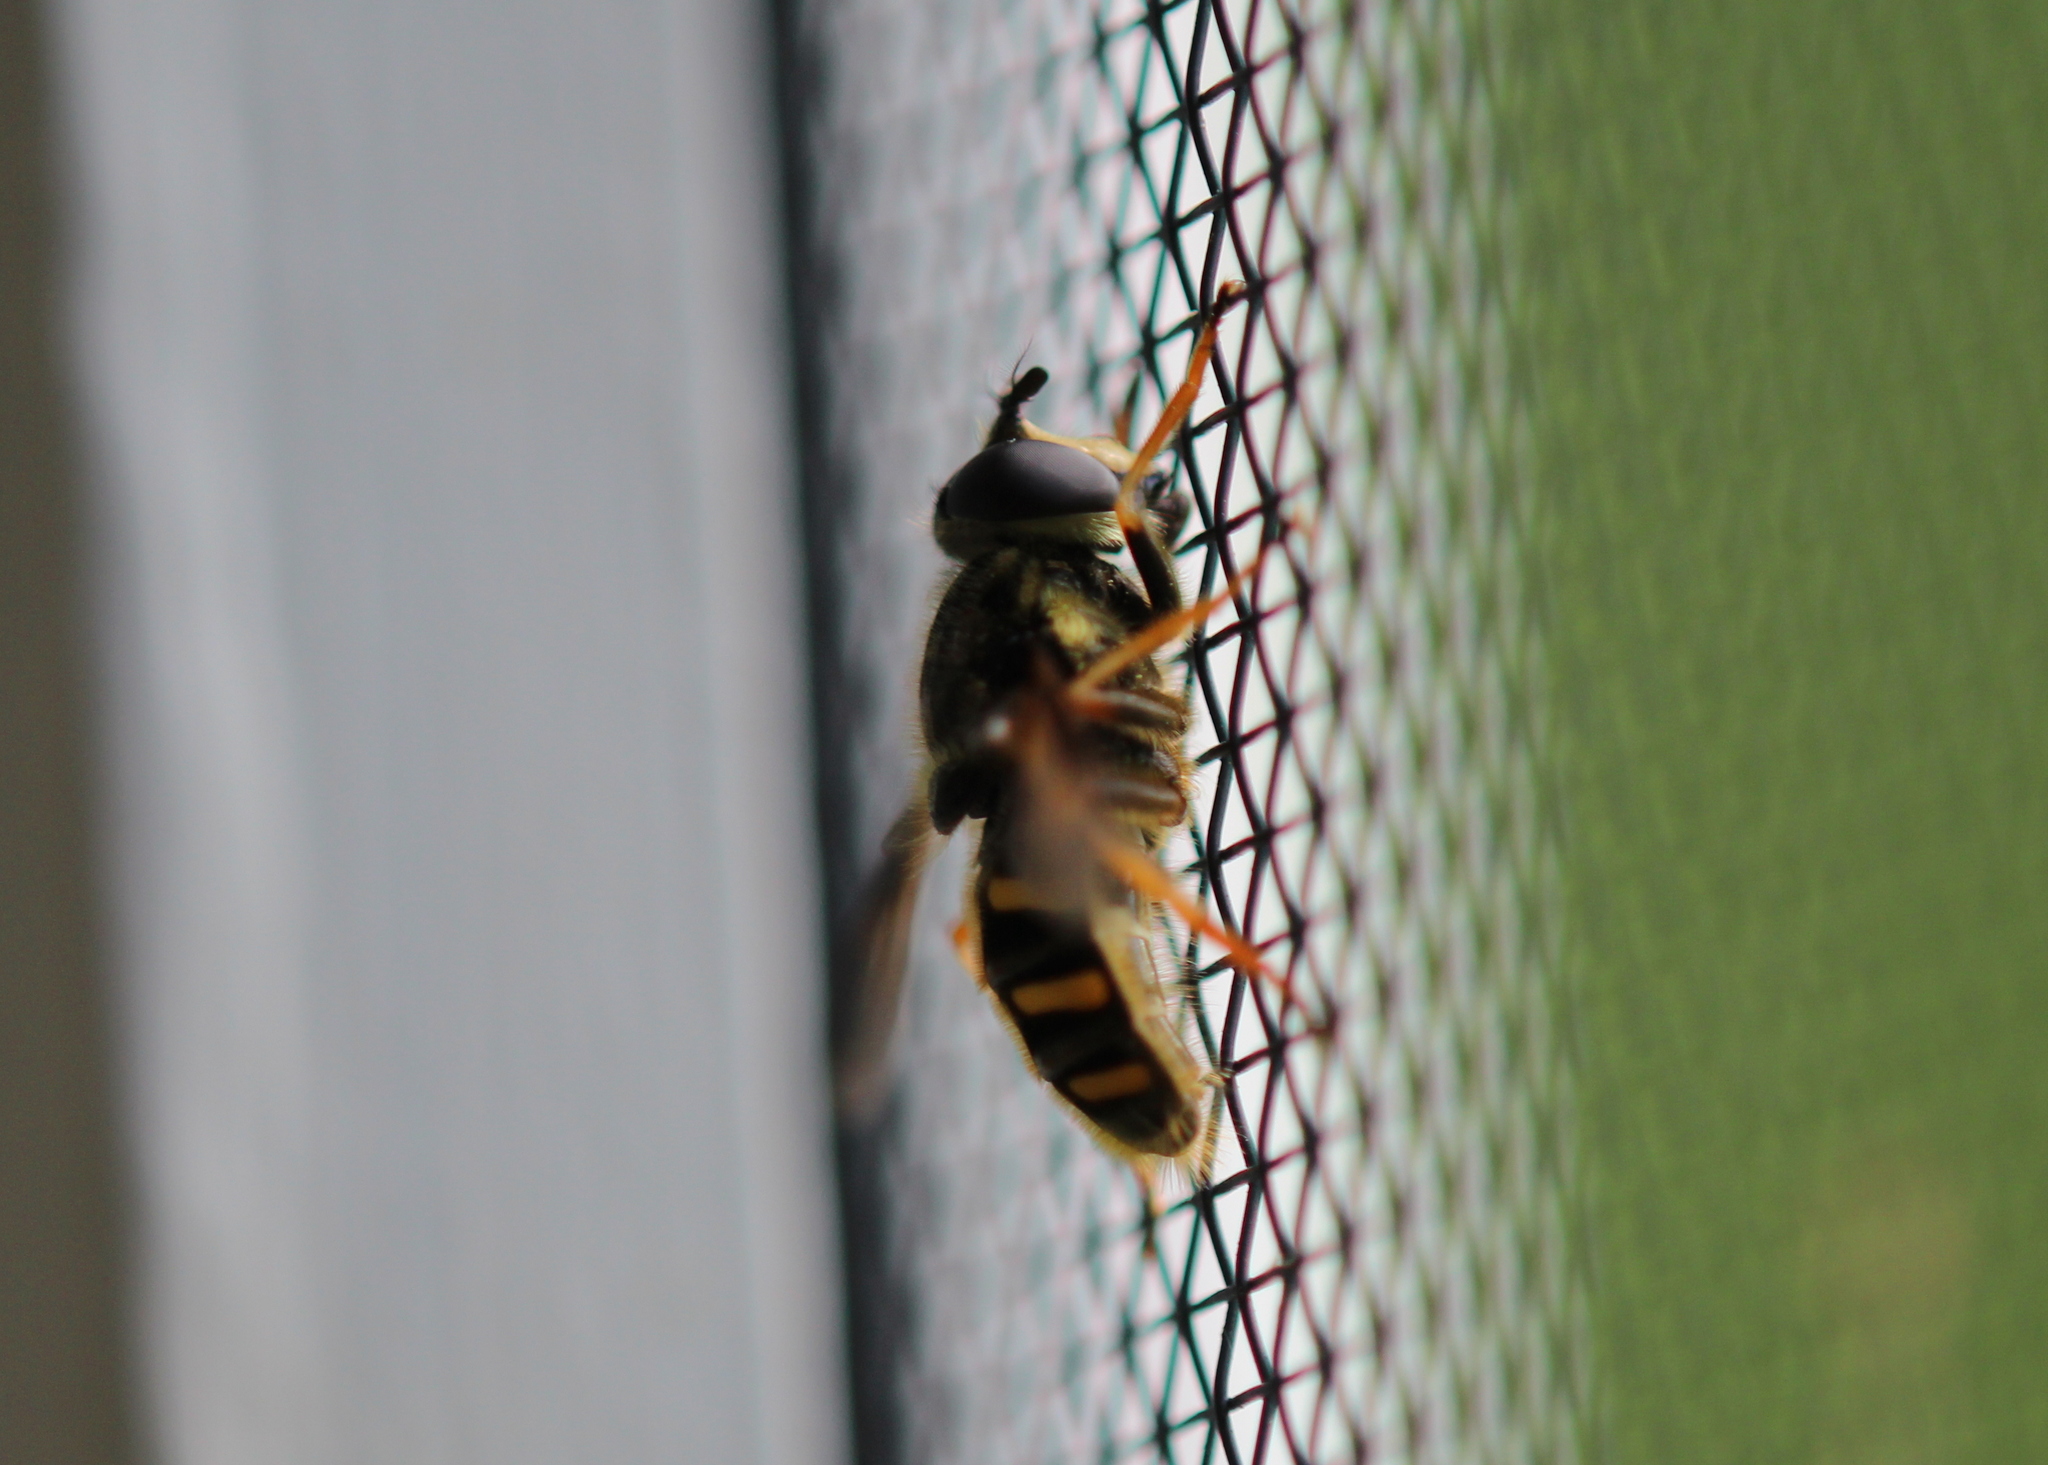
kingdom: Animalia
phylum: Arthropoda
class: Insecta
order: Diptera
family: Syrphidae
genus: Sericomyia
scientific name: Sericomyia chrysotoxoides
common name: Oblique-banded pond fly
